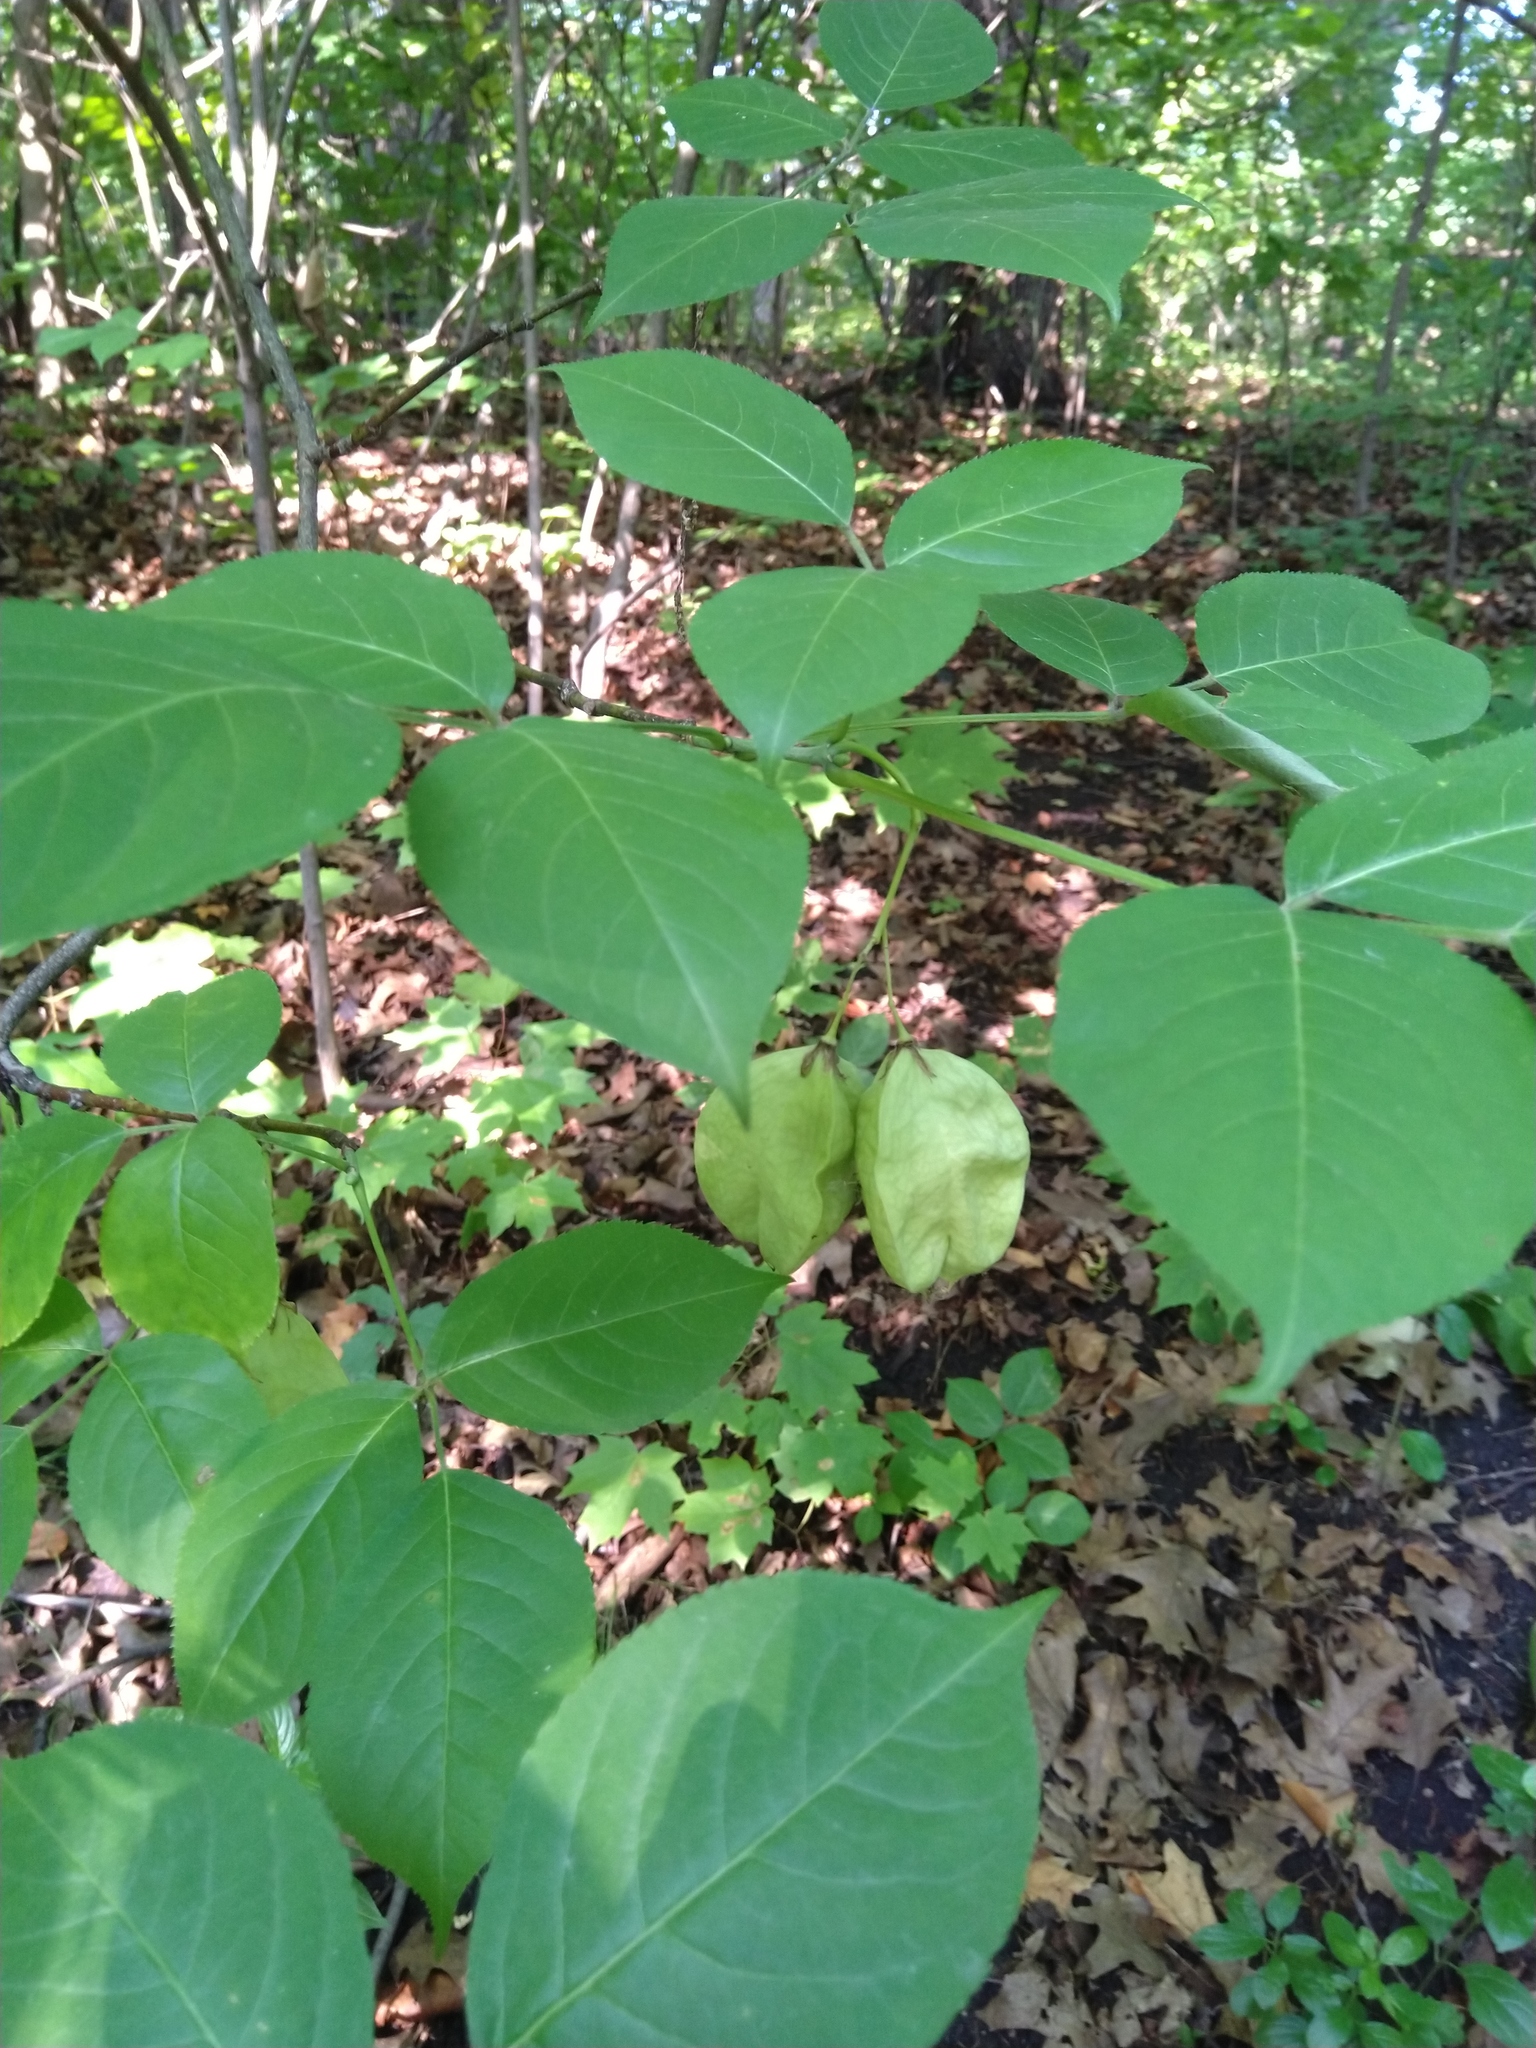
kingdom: Plantae
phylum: Tracheophyta
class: Magnoliopsida
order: Crossosomatales
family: Staphyleaceae
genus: Staphylea
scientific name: Staphylea trifolia
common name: American bladdernut
